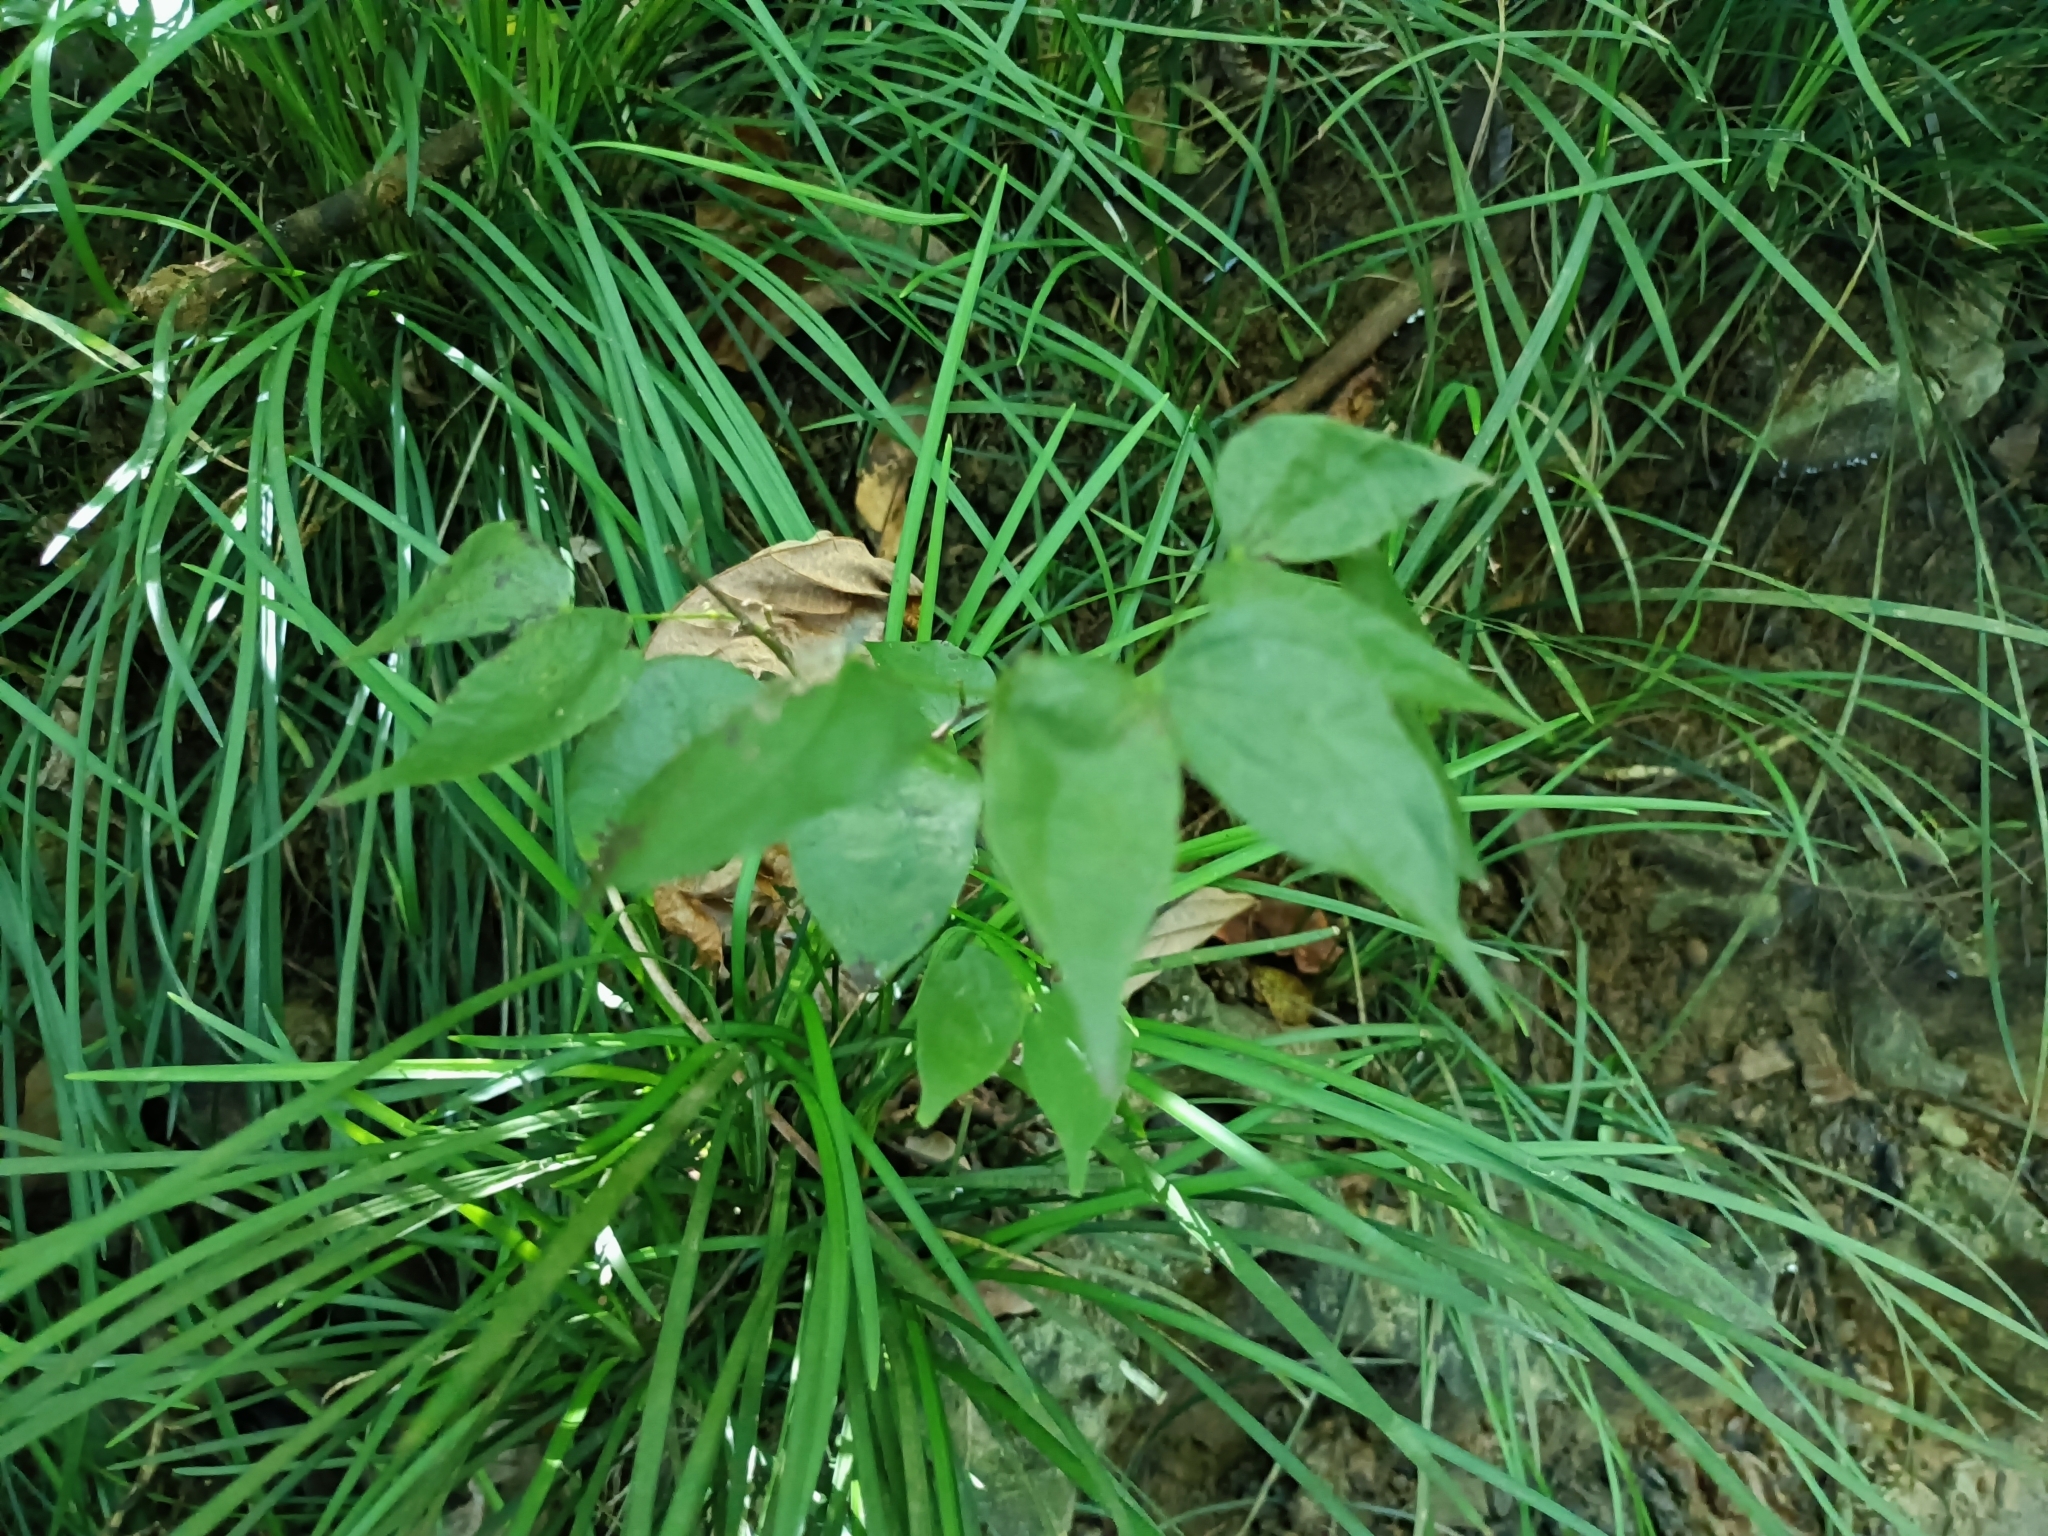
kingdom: Plantae
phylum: Tracheophyta
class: Magnoliopsida
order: Fabales
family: Fabaceae
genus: Phanera
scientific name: Phanera championii
